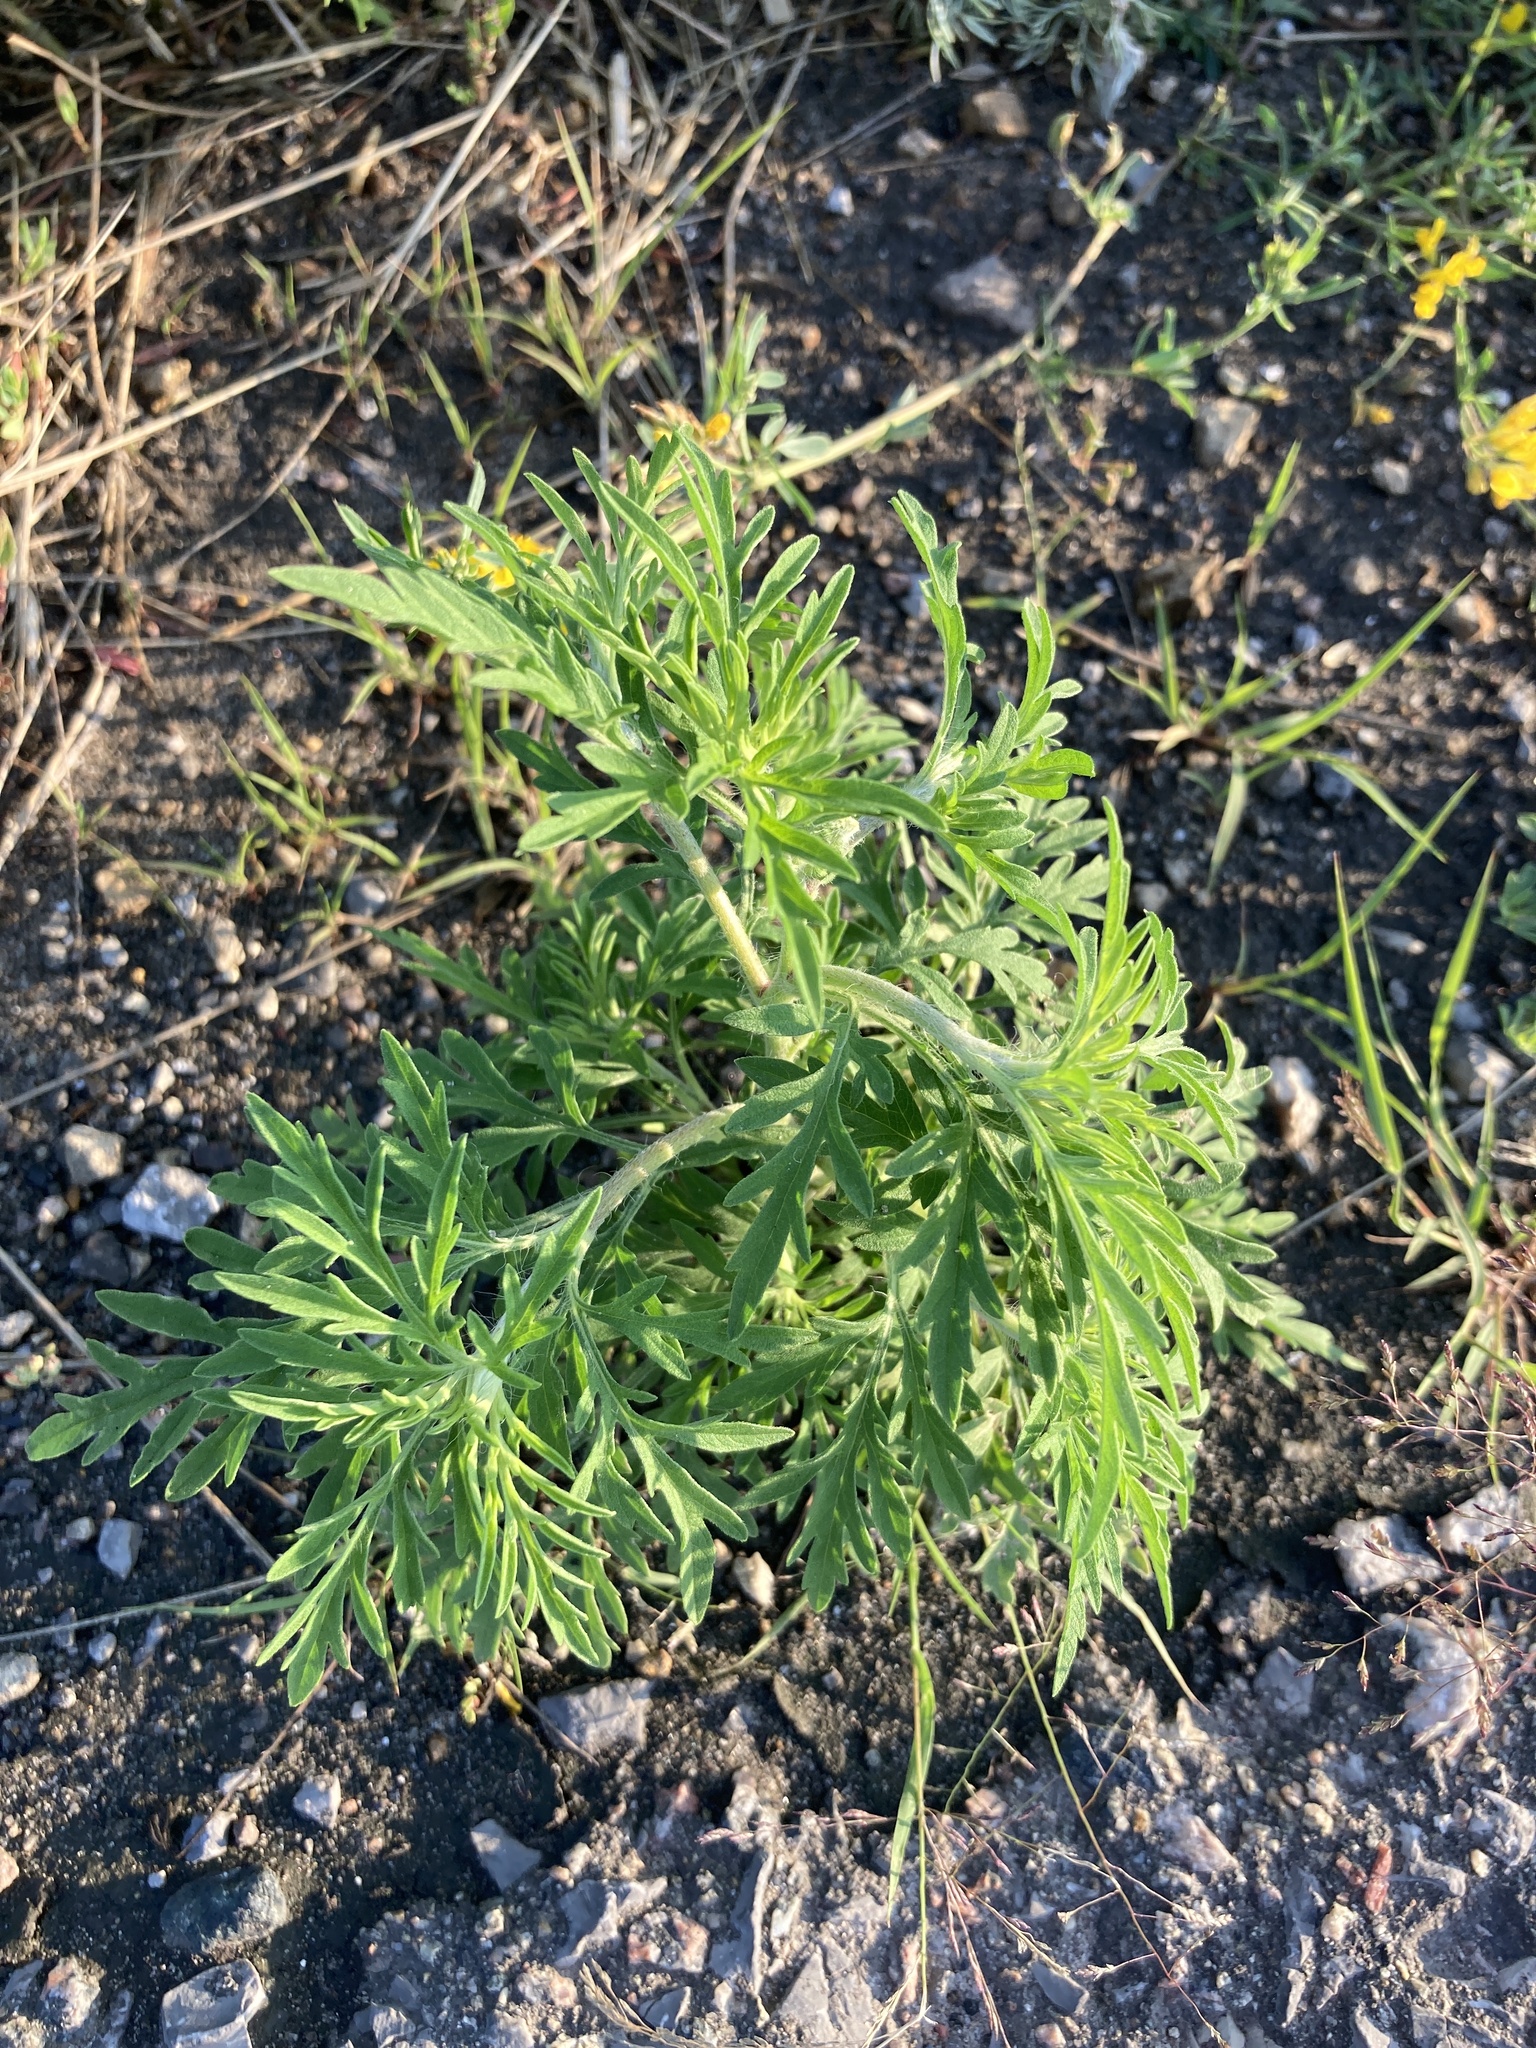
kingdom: Plantae
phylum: Tracheophyta
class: Magnoliopsida
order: Asterales
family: Asteraceae
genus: Ambrosia
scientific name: Ambrosia artemisiifolia
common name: Annual ragweed
